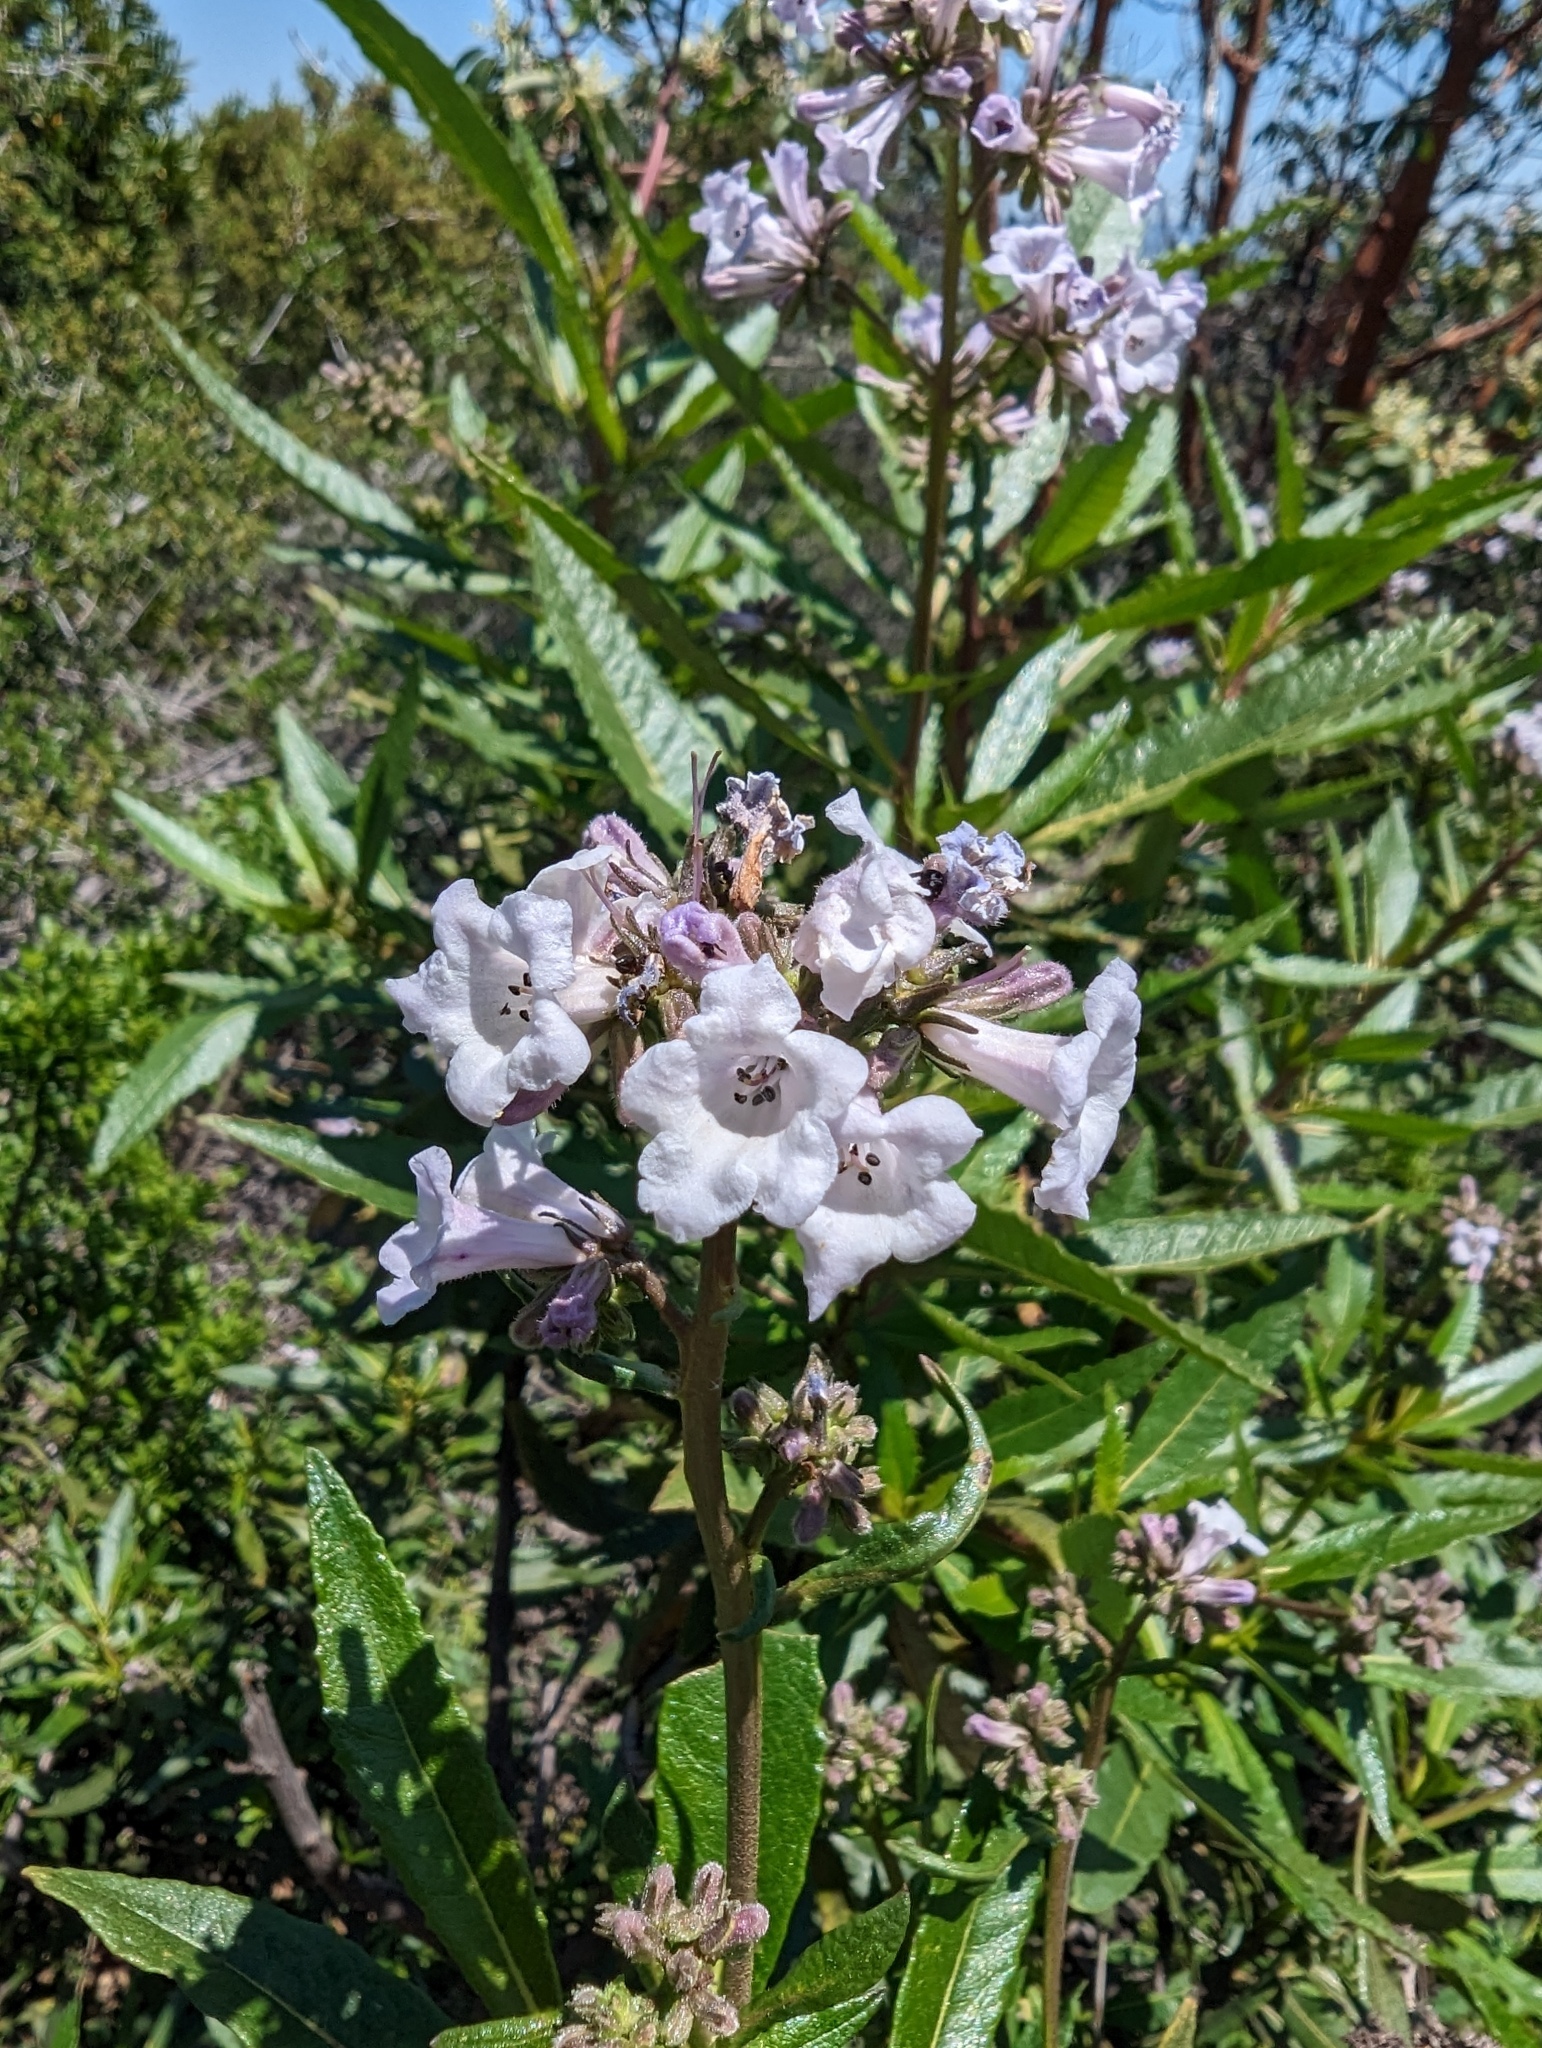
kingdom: Plantae
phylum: Tracheophyta
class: Magnoliopsida
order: Boraginales
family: Namaceae
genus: Eriodictyon
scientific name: Eriodictyon californicum
